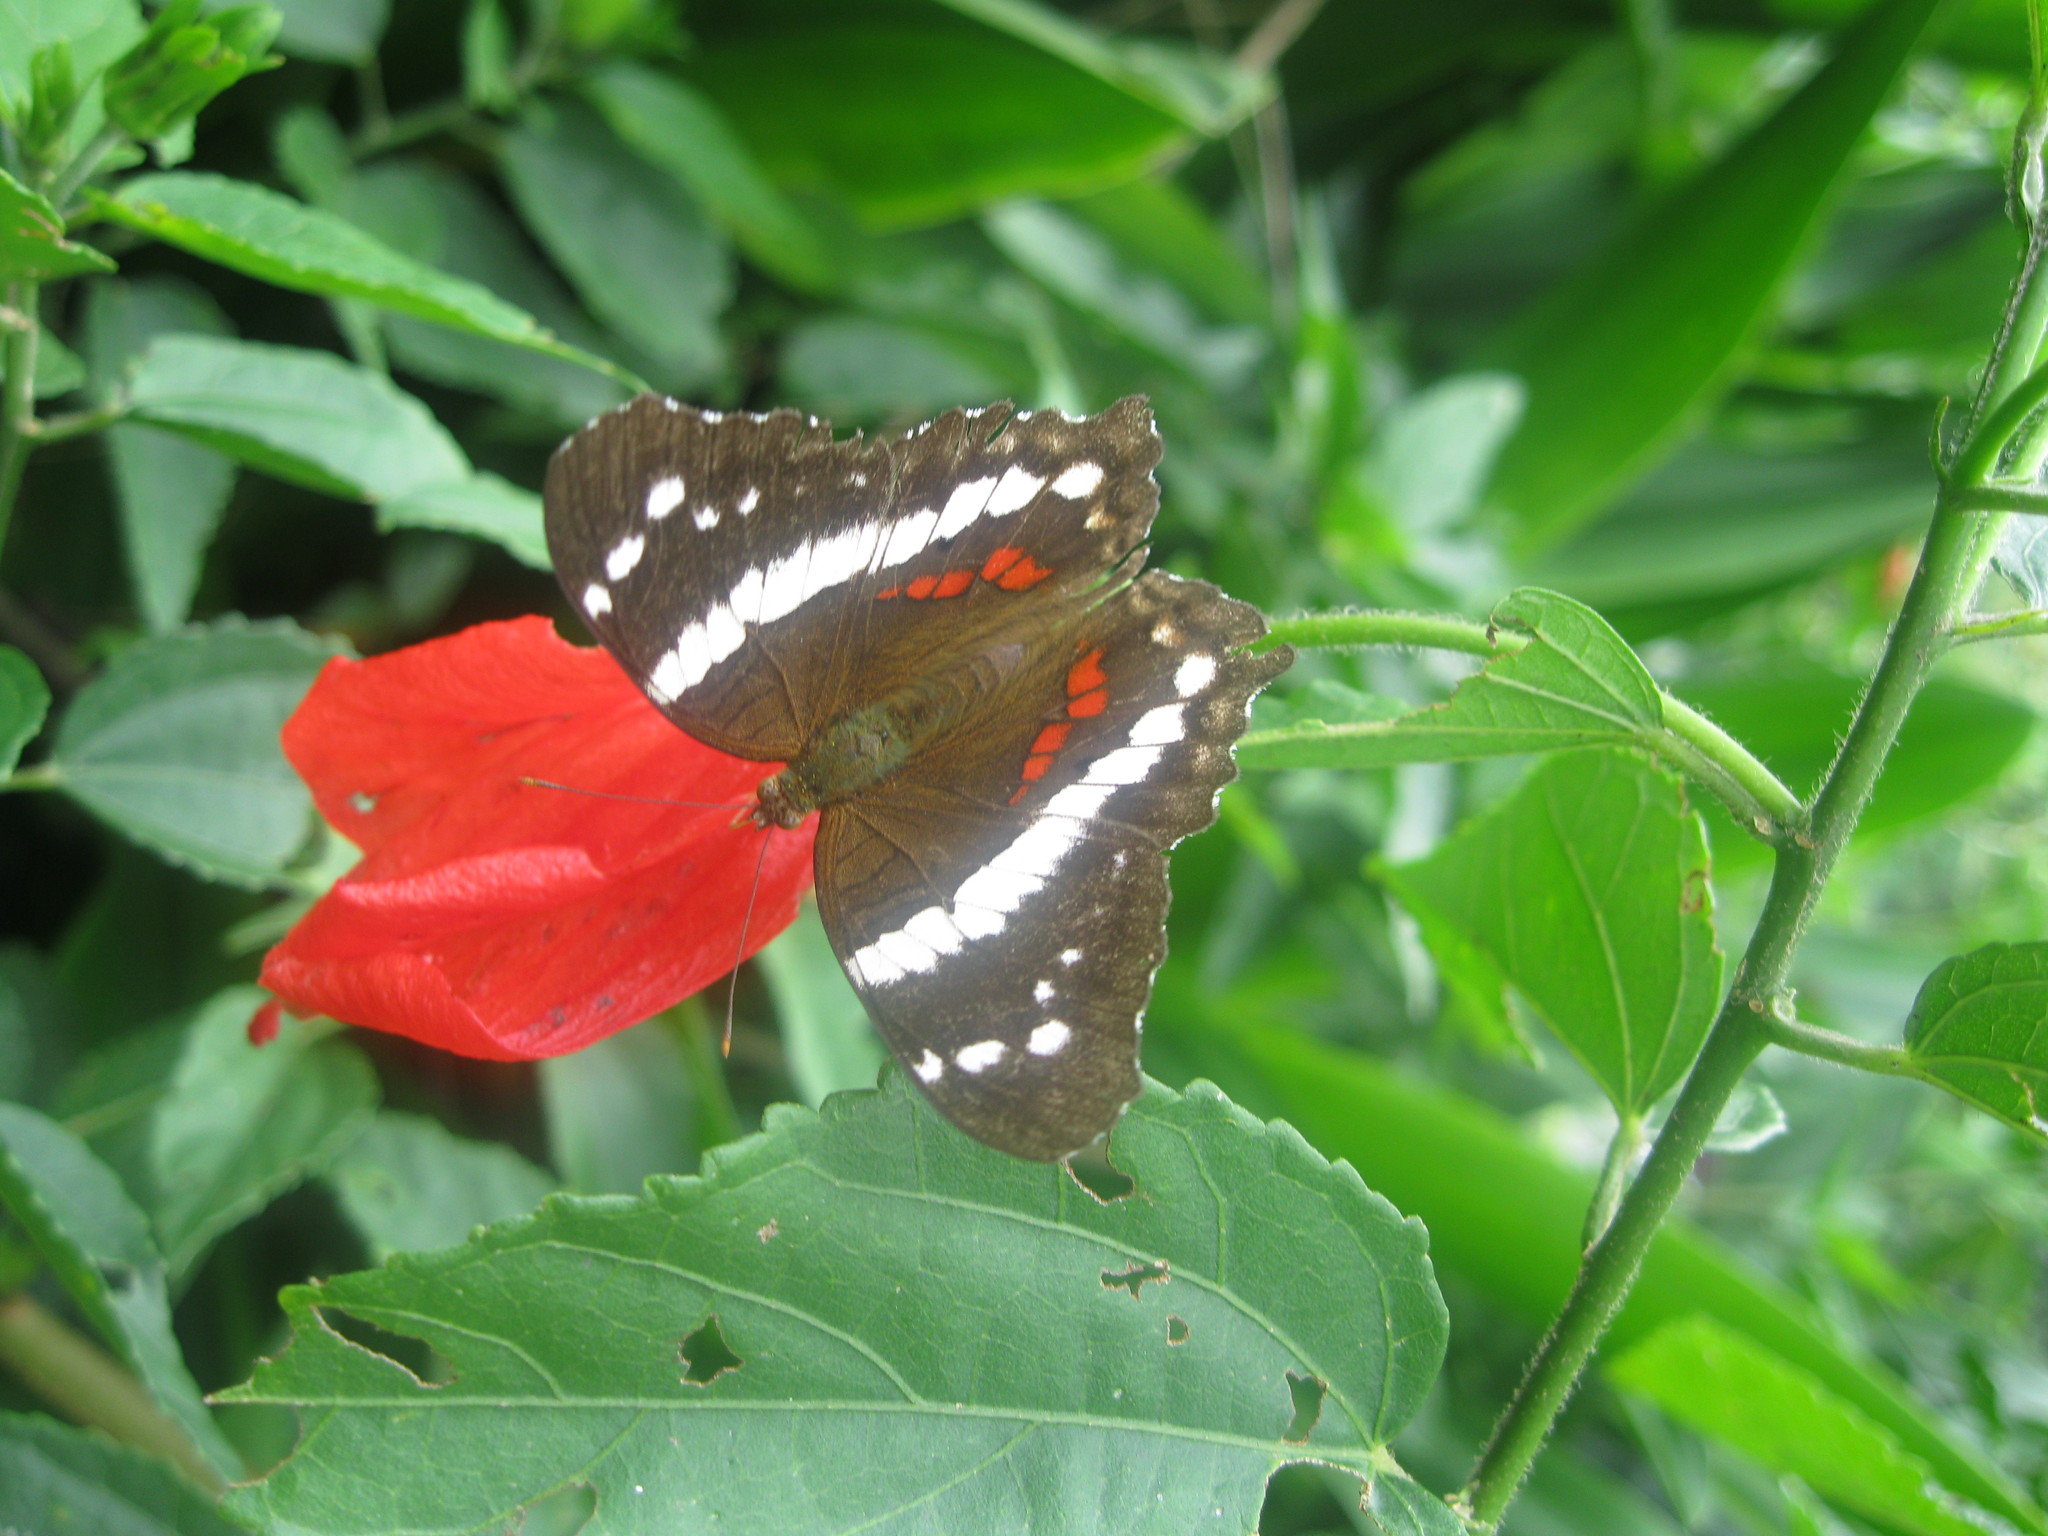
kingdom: Animalia
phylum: Arthropoda
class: Insecta
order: Lepidoptera
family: Nymphalidae
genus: Anartia
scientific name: Anartia fatima
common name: Banded peacock
